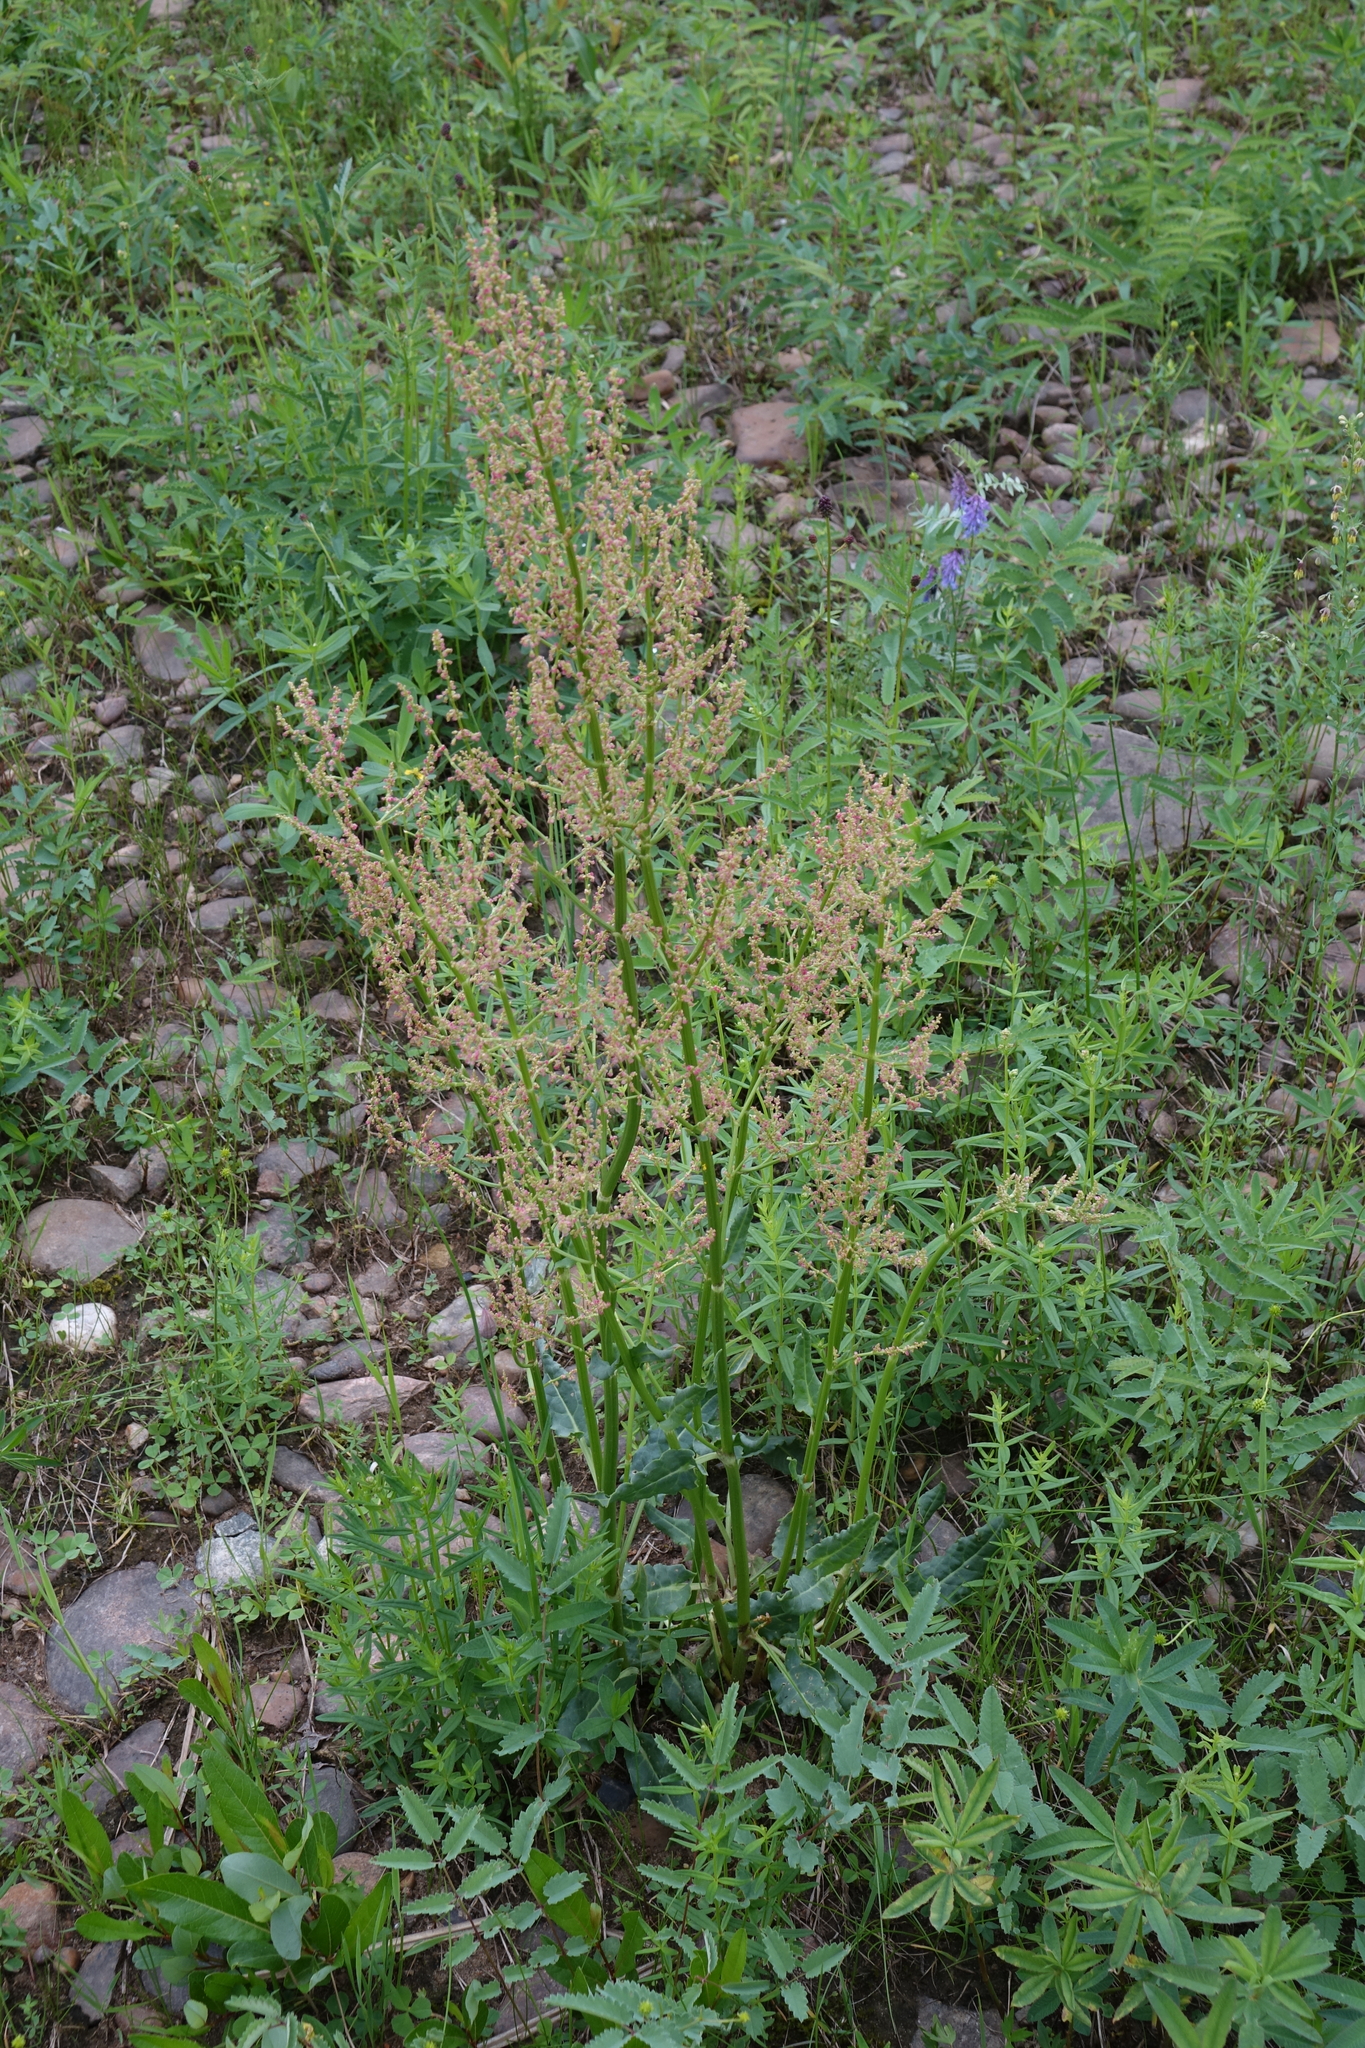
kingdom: Plantae
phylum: Tracheophyta
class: Magnoliopsida
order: Caryophyllales
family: Polygonaceae
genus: Rumex
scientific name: Rumex thyrsiflorus
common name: Garden sorrel
